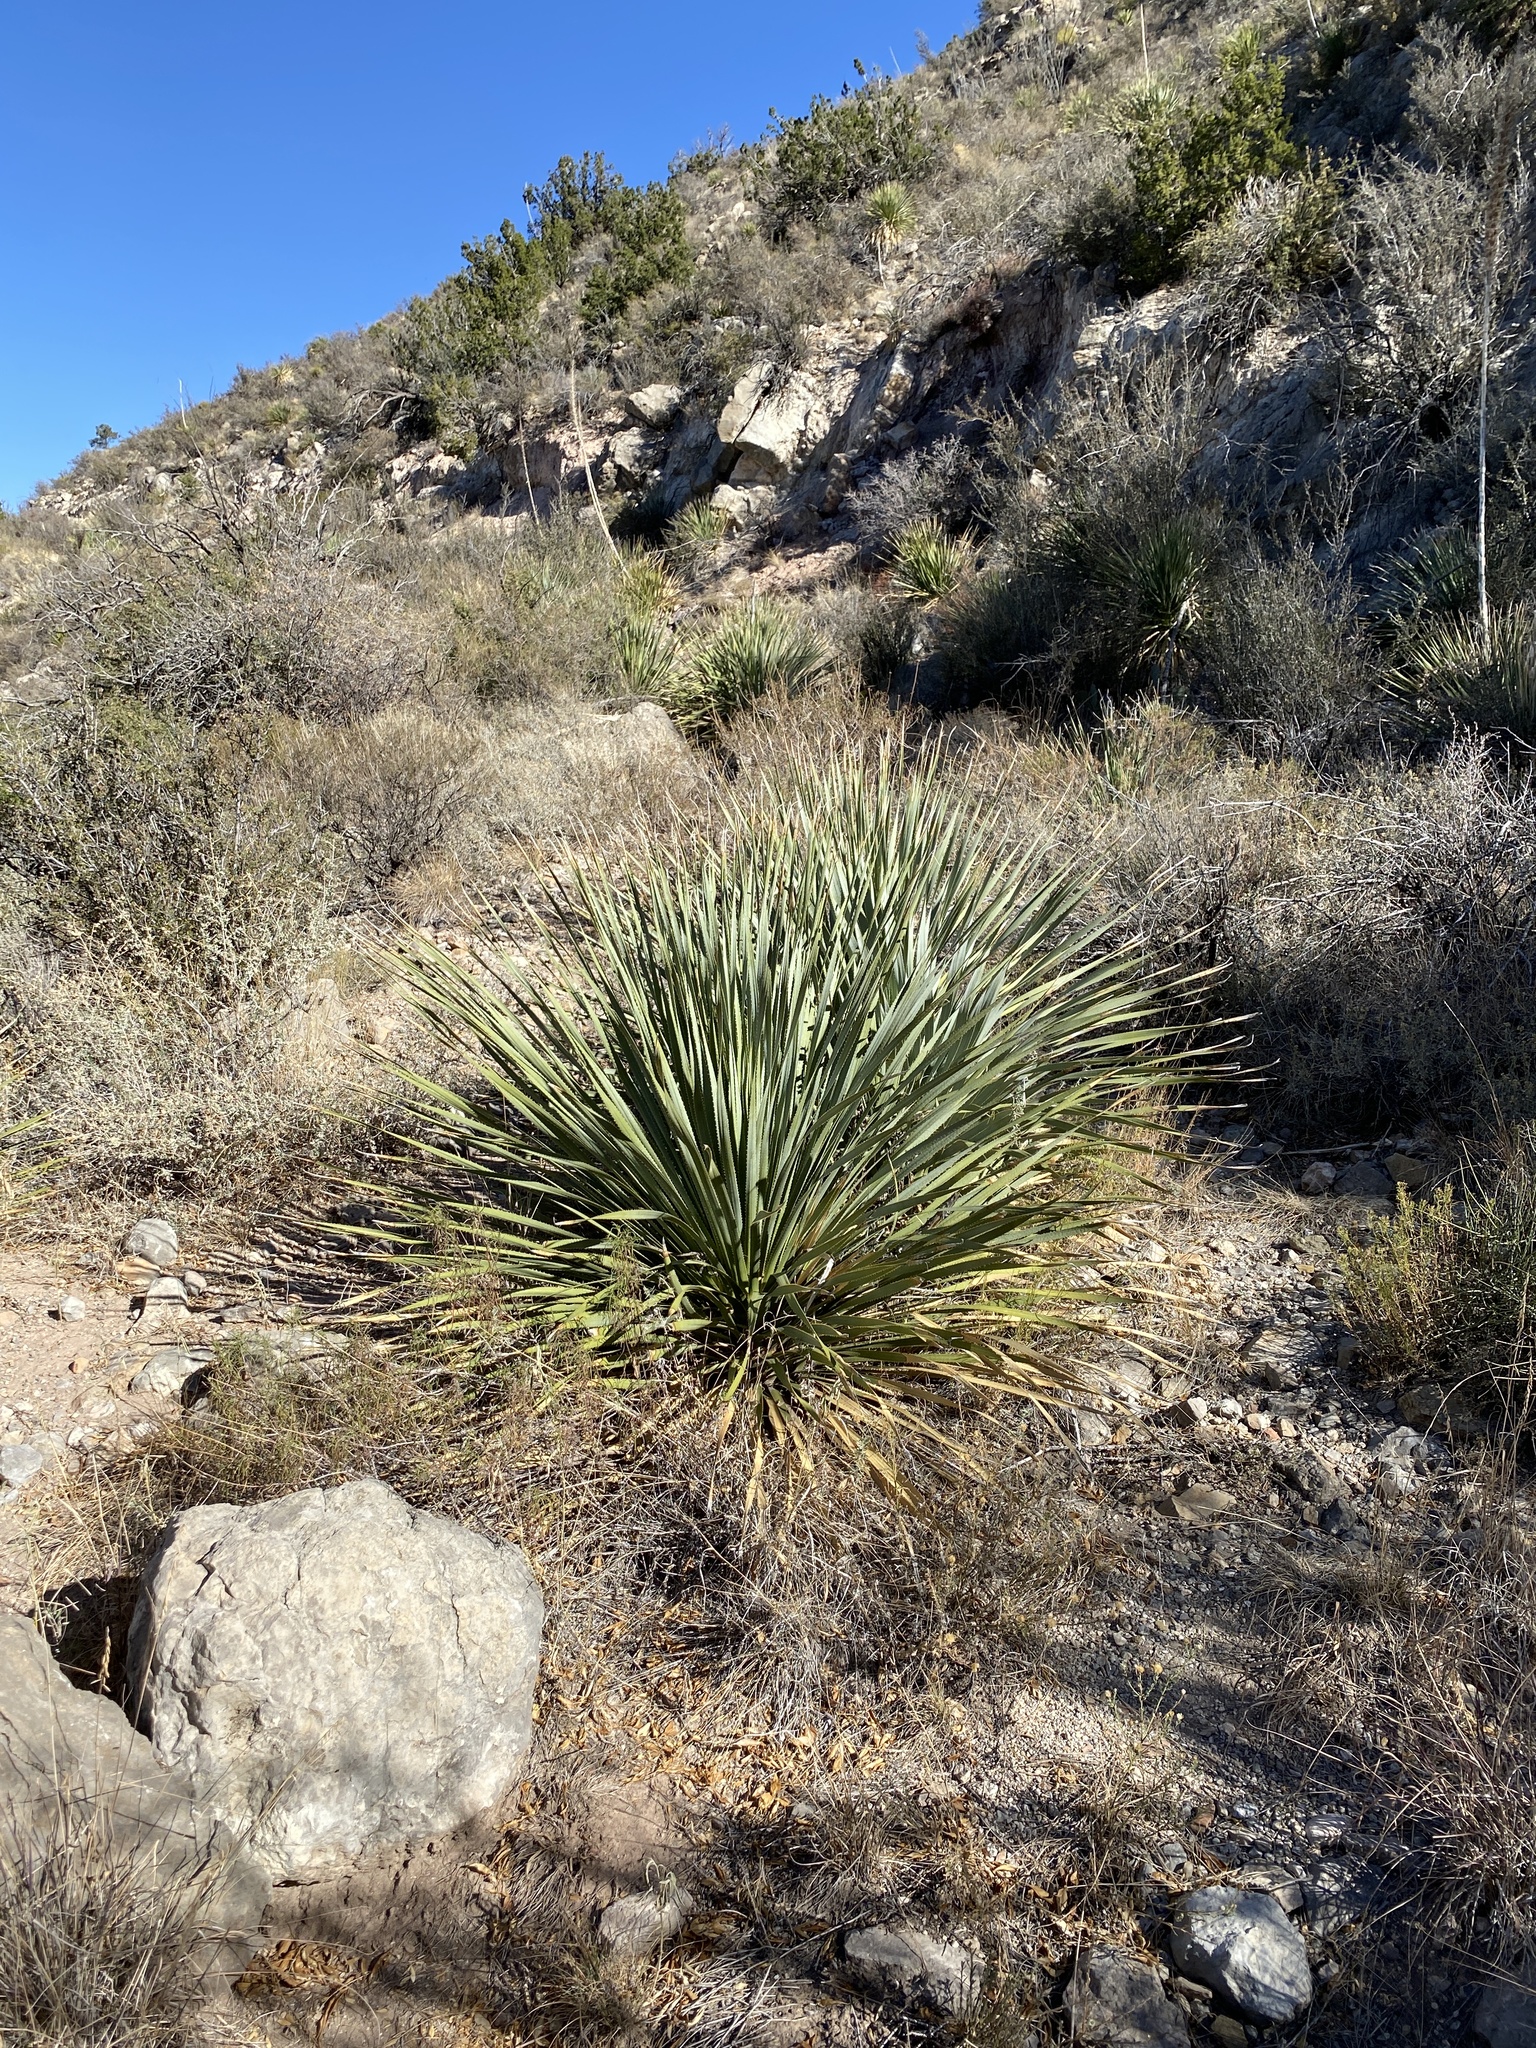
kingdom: Plantae
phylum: Tracheophyta
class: Liliopsida
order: Asparagales
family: Asparagaceae
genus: Dasylirion
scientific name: Dasylirion wheeleri
